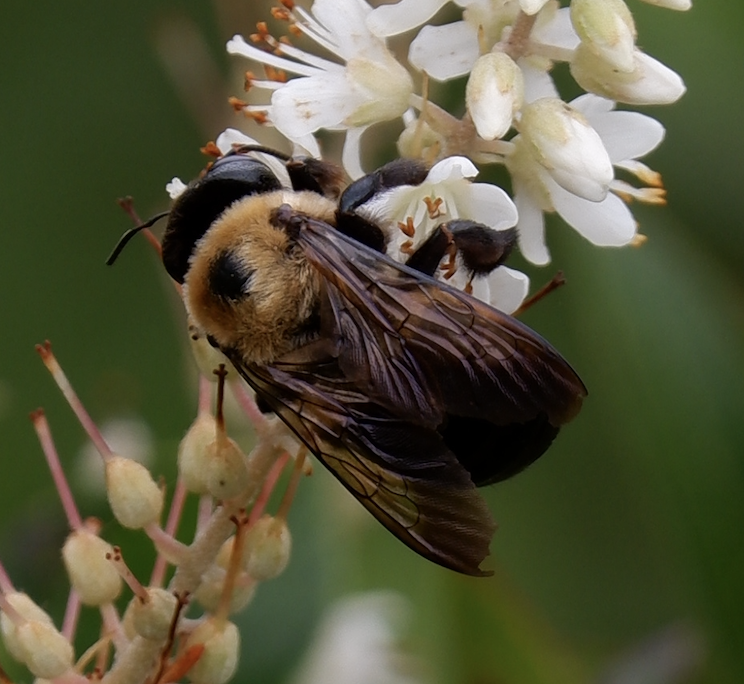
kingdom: Animalia
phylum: Arthropoda
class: Insecta
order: Hymenoptera
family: Apidae
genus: Xylocopa
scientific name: Xylocopa virginica
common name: Carpenter bee
